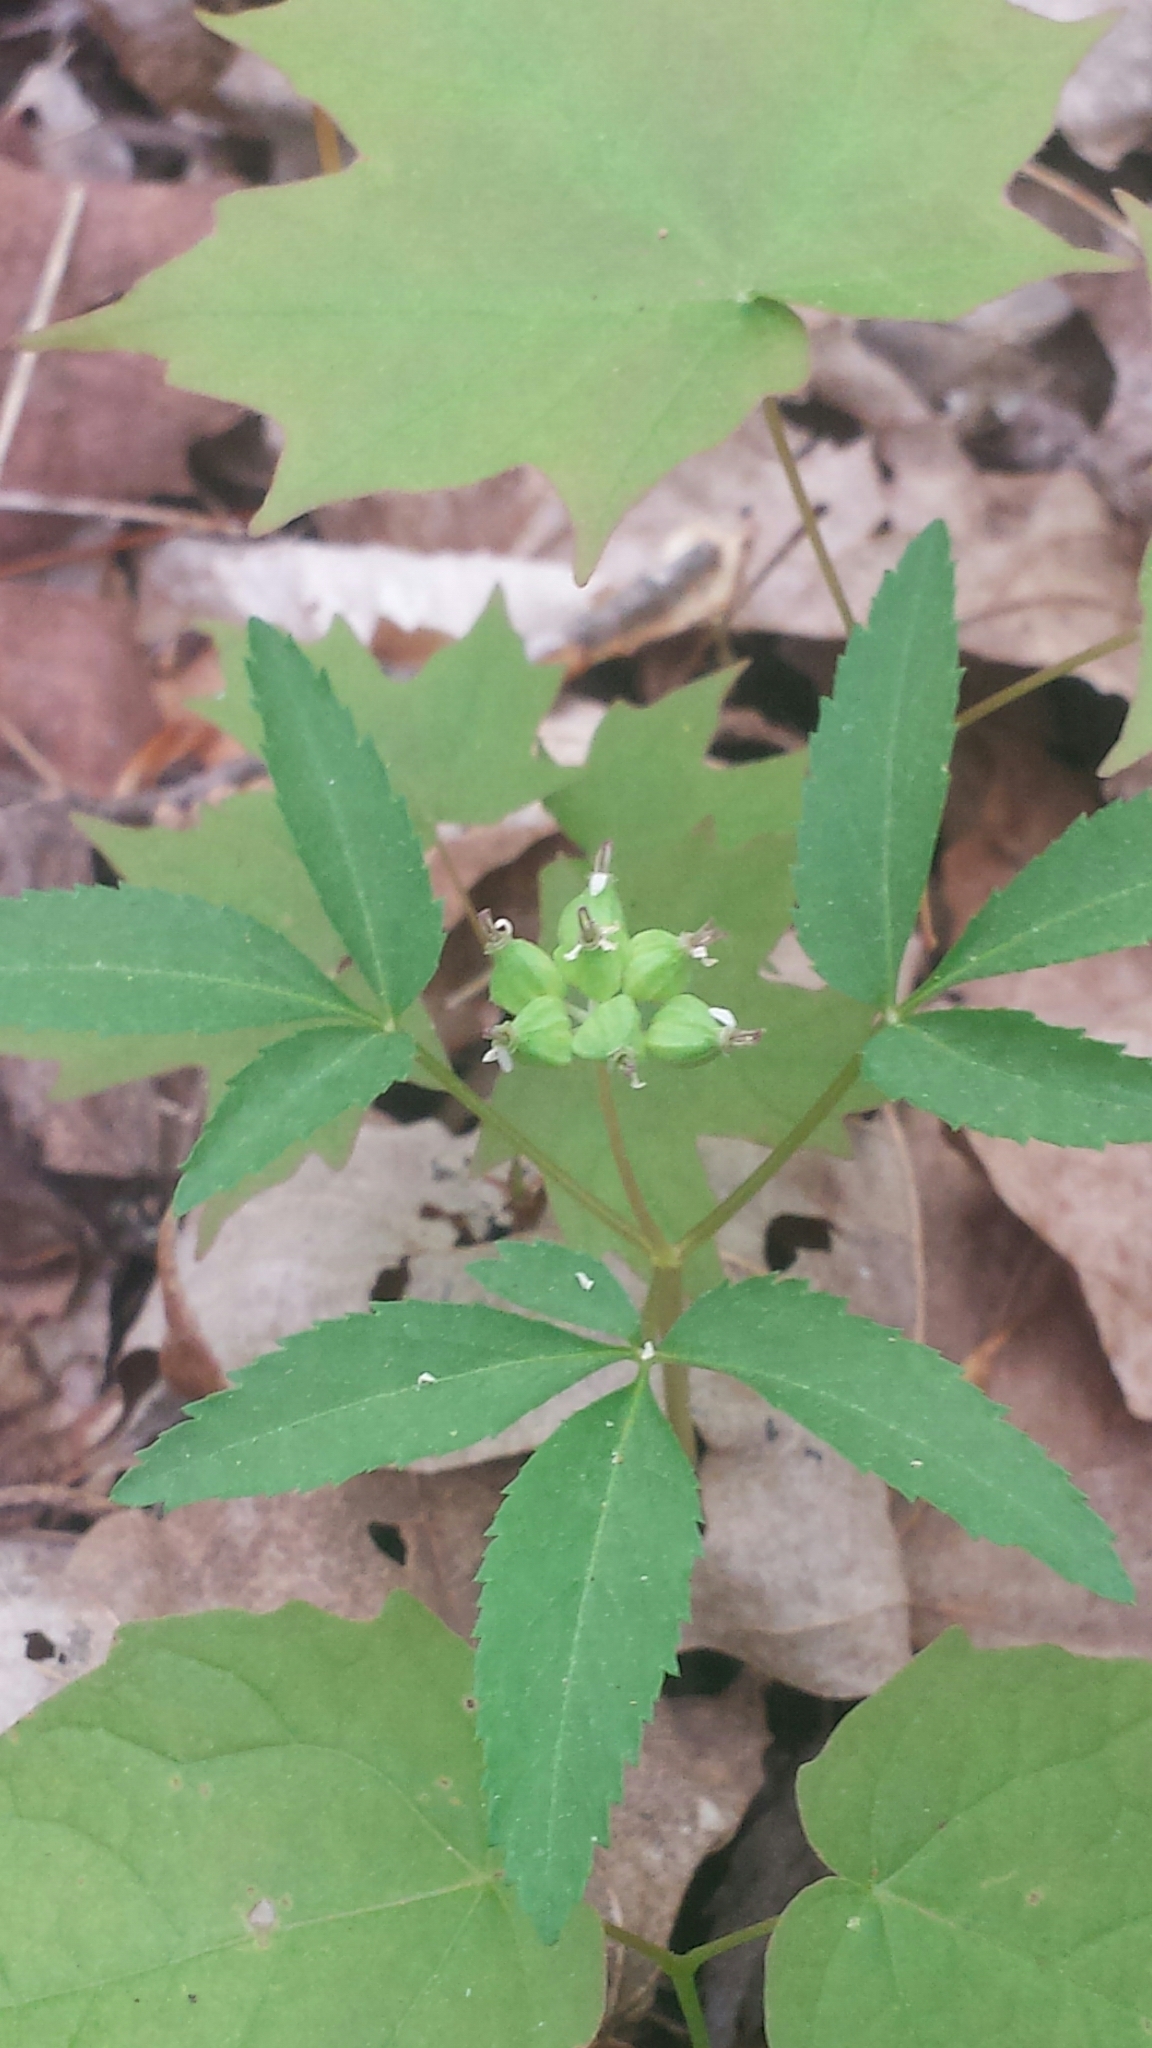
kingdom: Plantae
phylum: Tracheophyta
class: Magnoliopsida
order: Apiales
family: Araliaceae
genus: Panax
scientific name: Panax trifolius
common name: Dwarf ginseng
